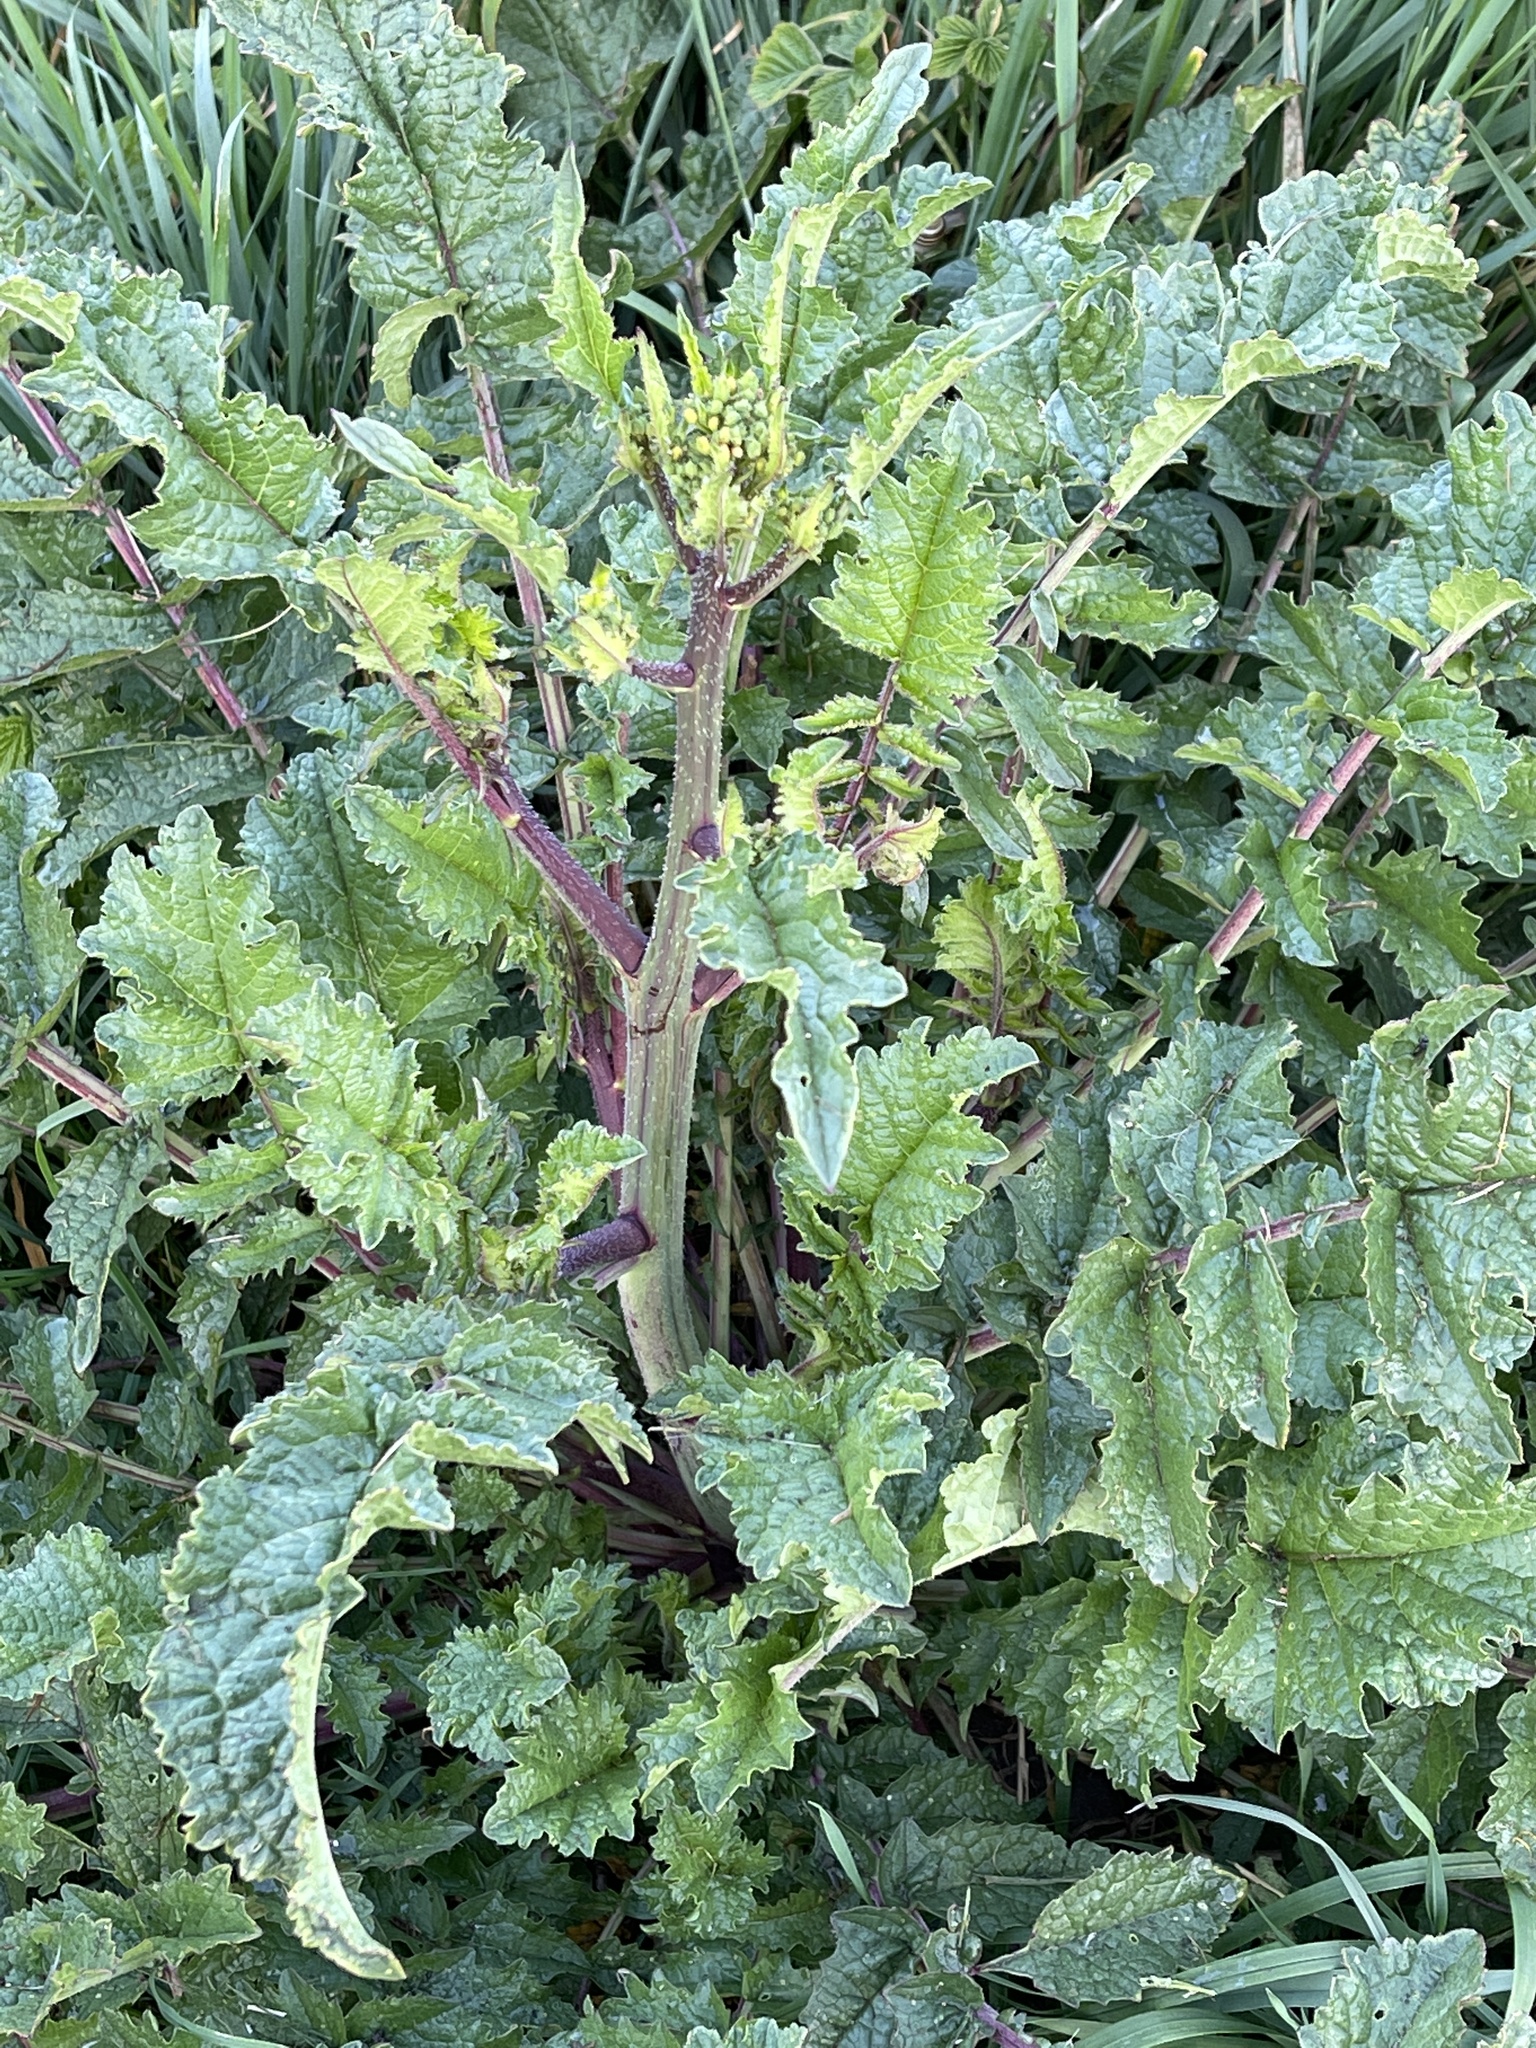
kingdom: Plantae
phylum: Tracheophyta
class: Magnoliopsida
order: Brassicales
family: Brassicaceae
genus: Raphanus
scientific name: Raphanus raphanistrum
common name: Wild radish
